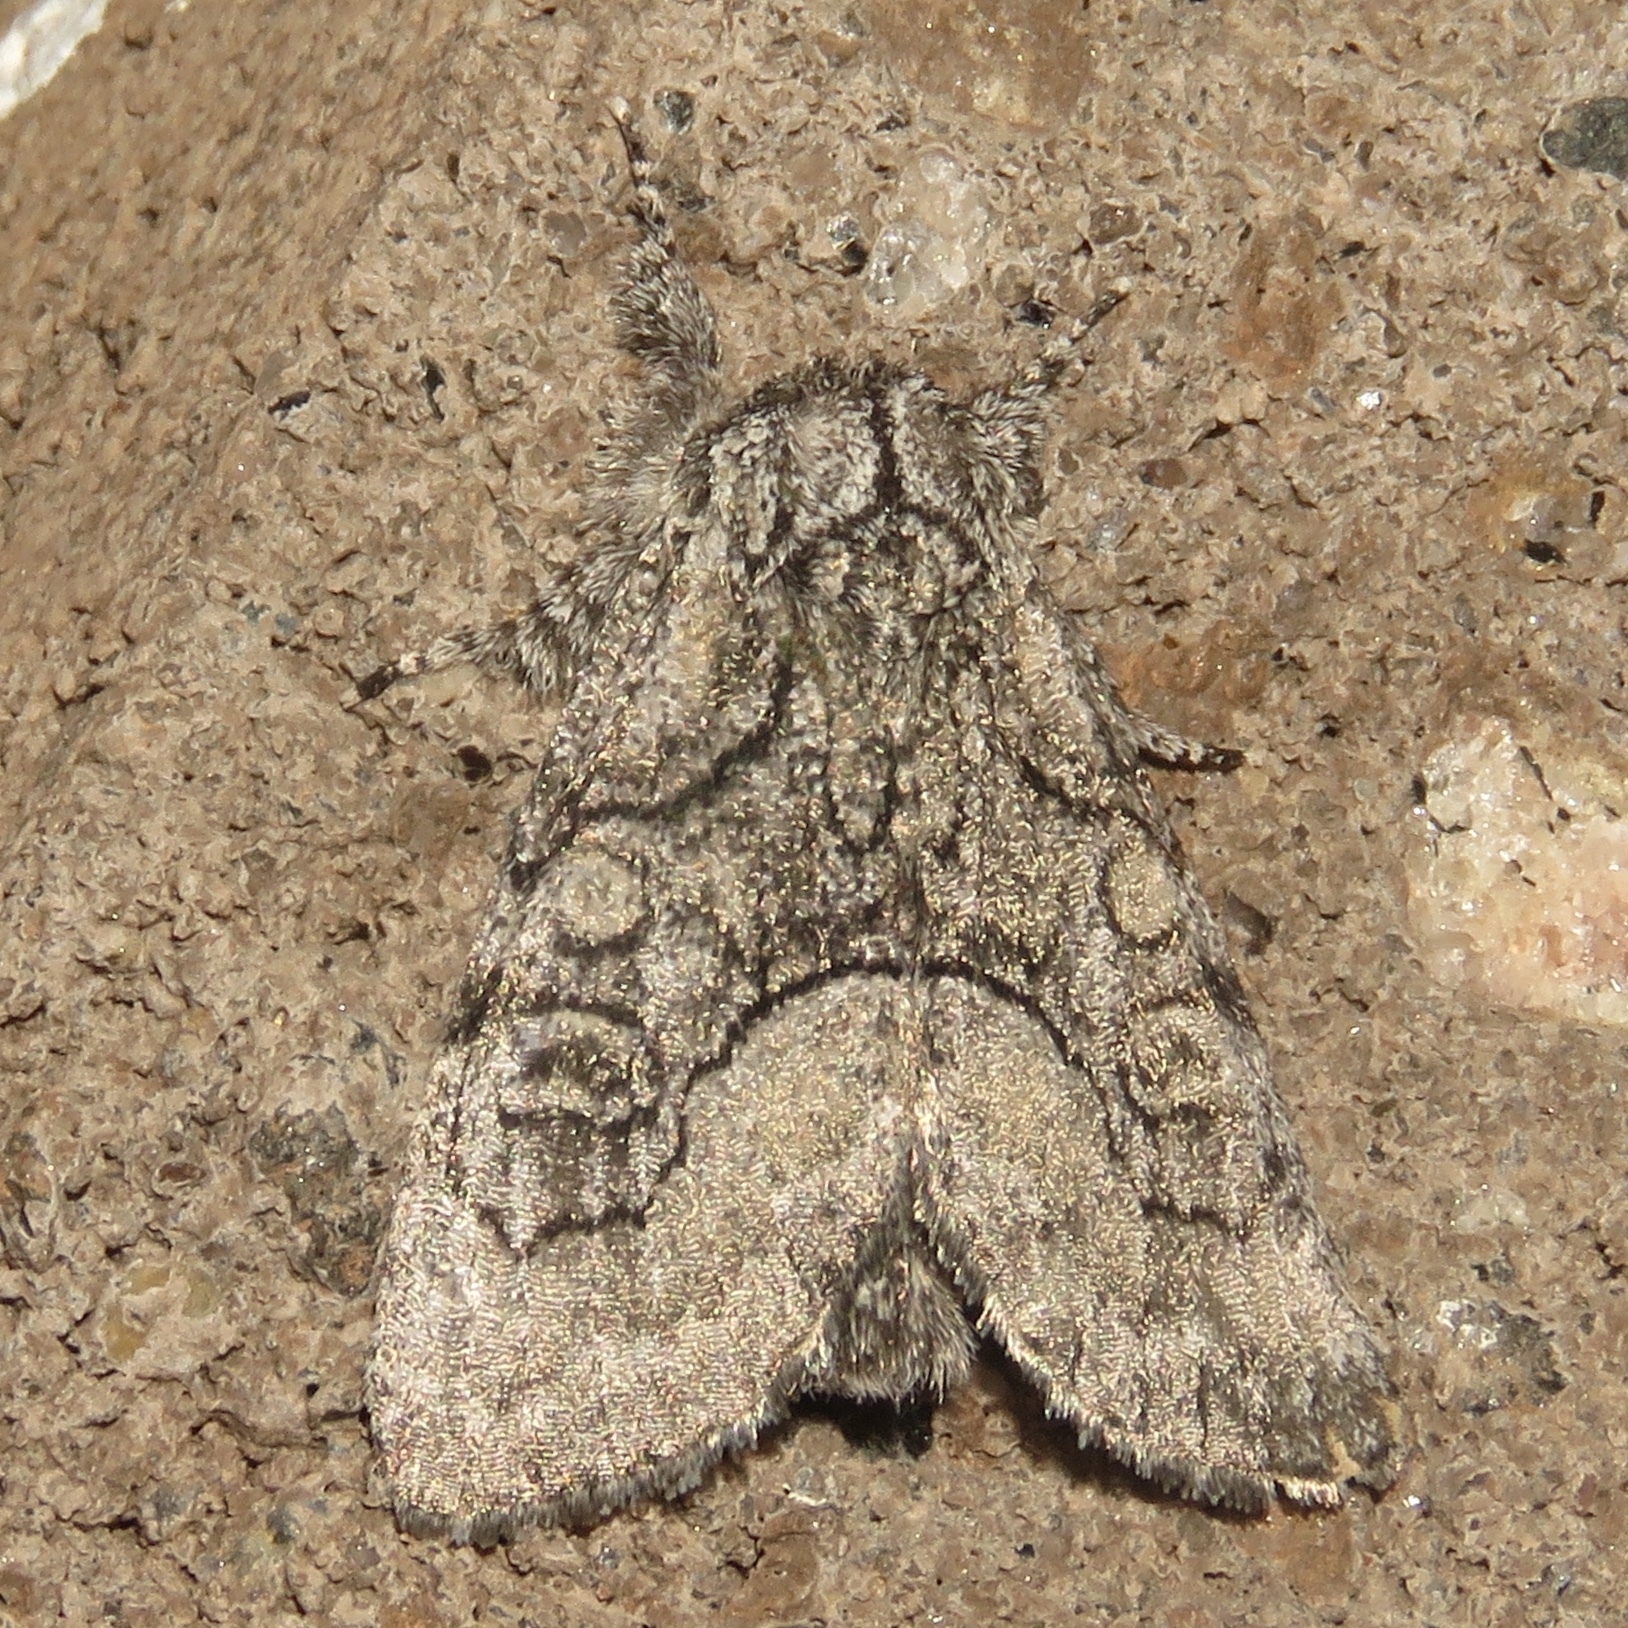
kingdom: Animalia
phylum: Arthropoda
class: Insecta
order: Lepidoptera
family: Noctuidae
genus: Raphia
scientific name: Raphia frater
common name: Brother
